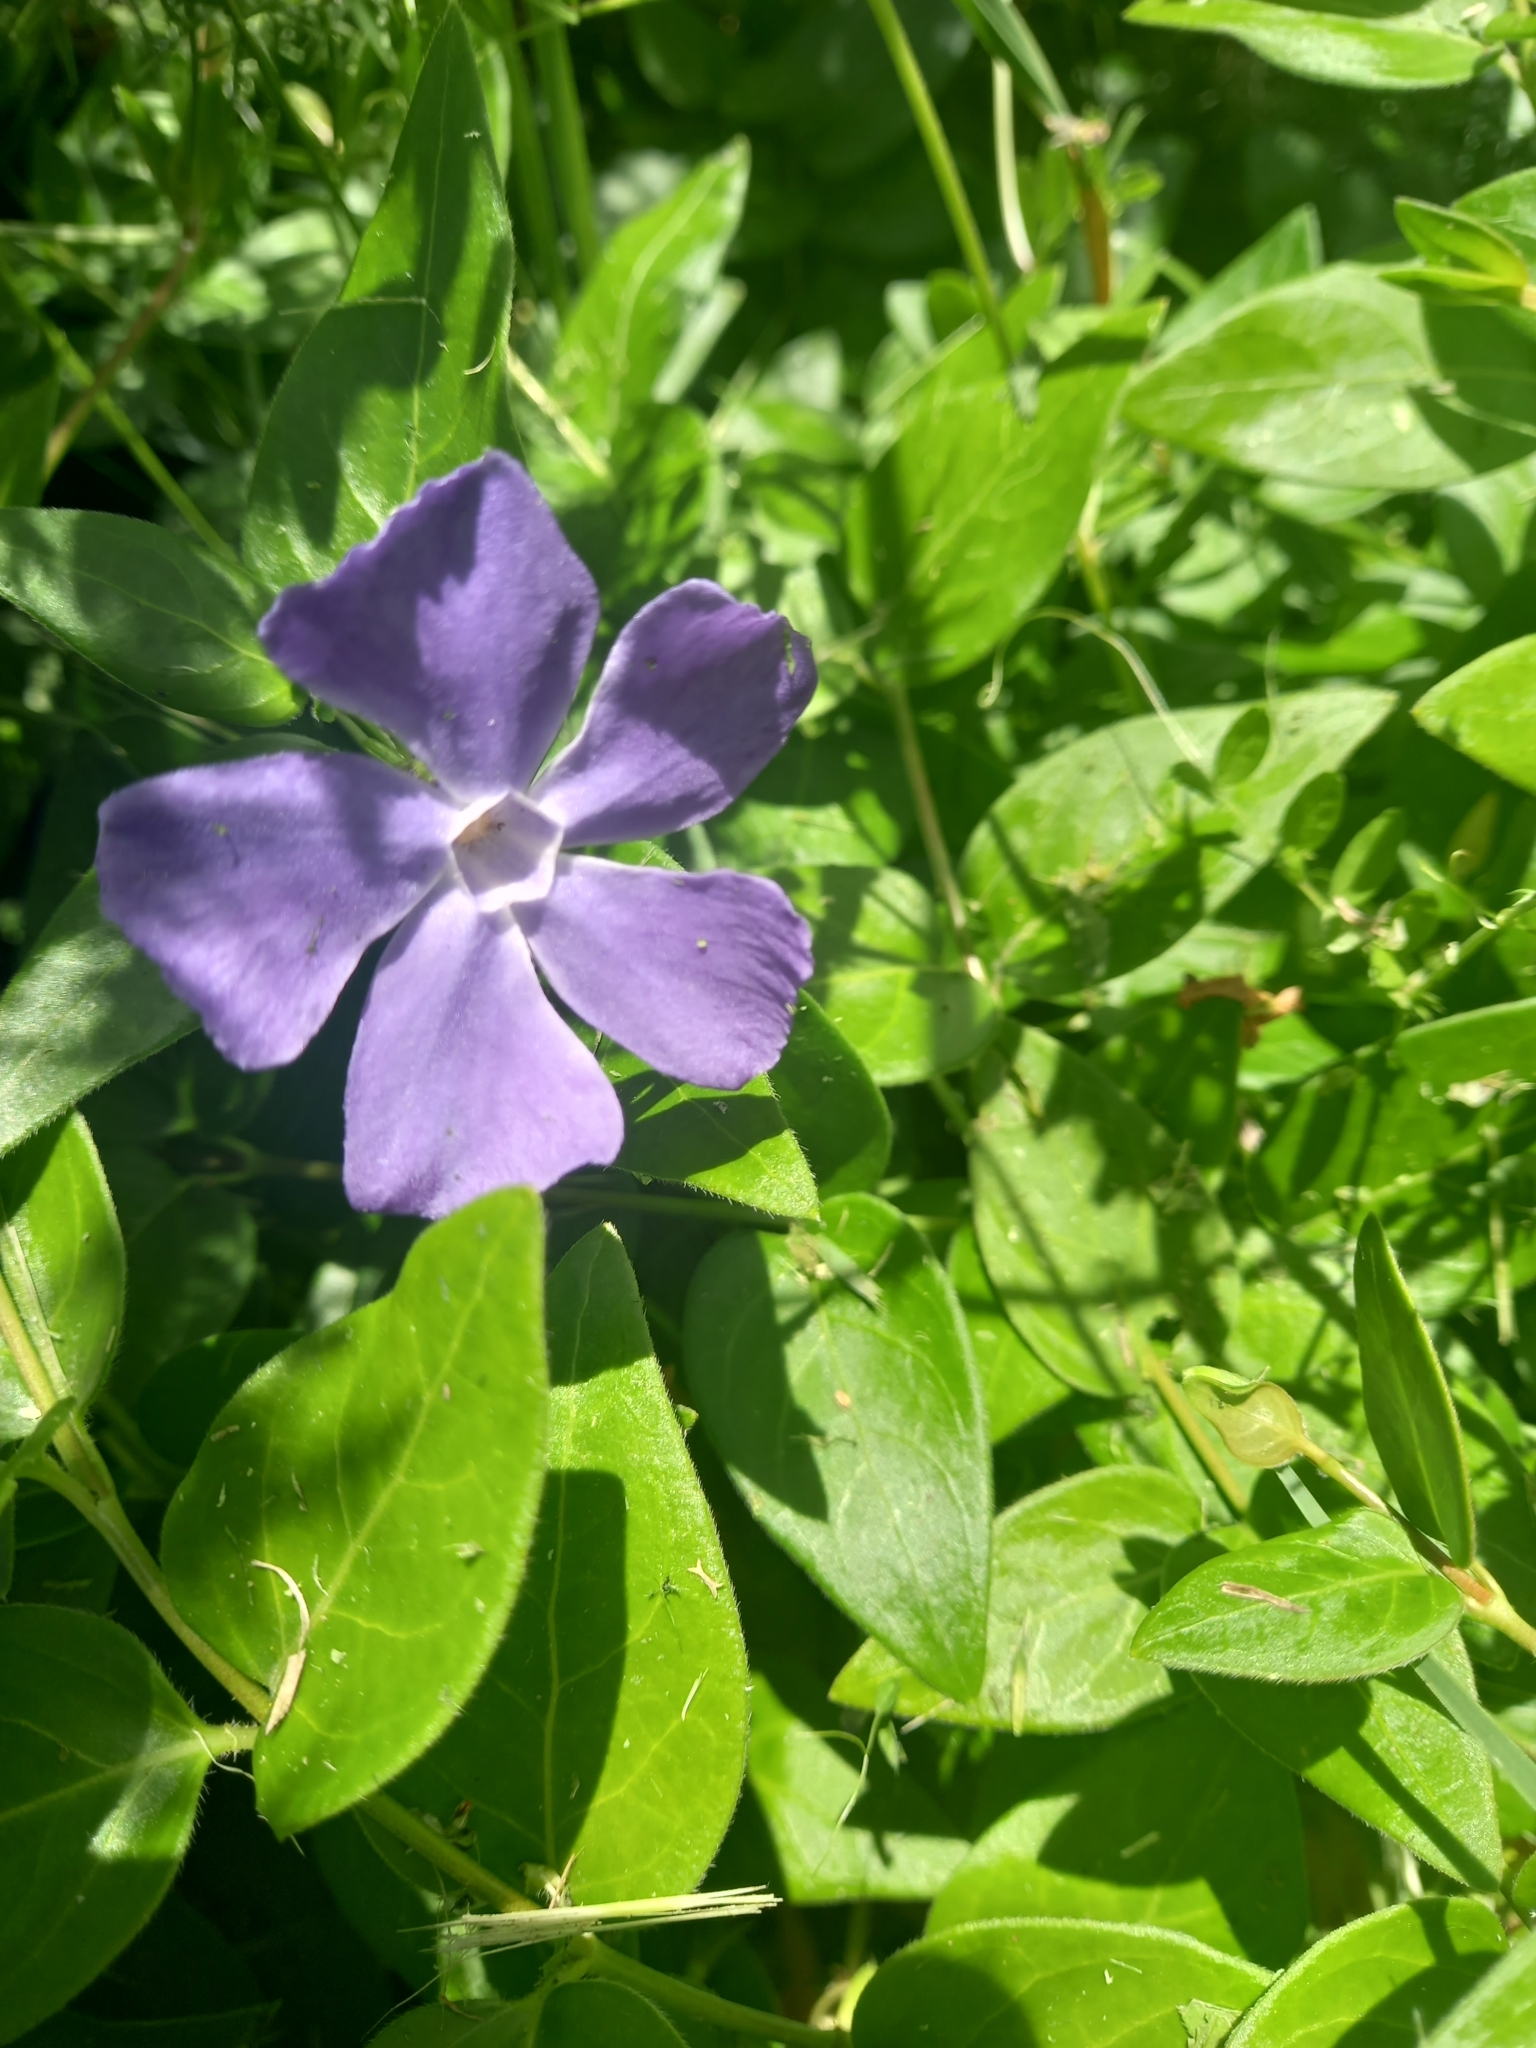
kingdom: Plantae
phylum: Tracheophyta
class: Magnoliopsida
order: Gentianales
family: Apocynaceae
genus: Vinca
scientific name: Vinca major
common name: Greater periwinkle
